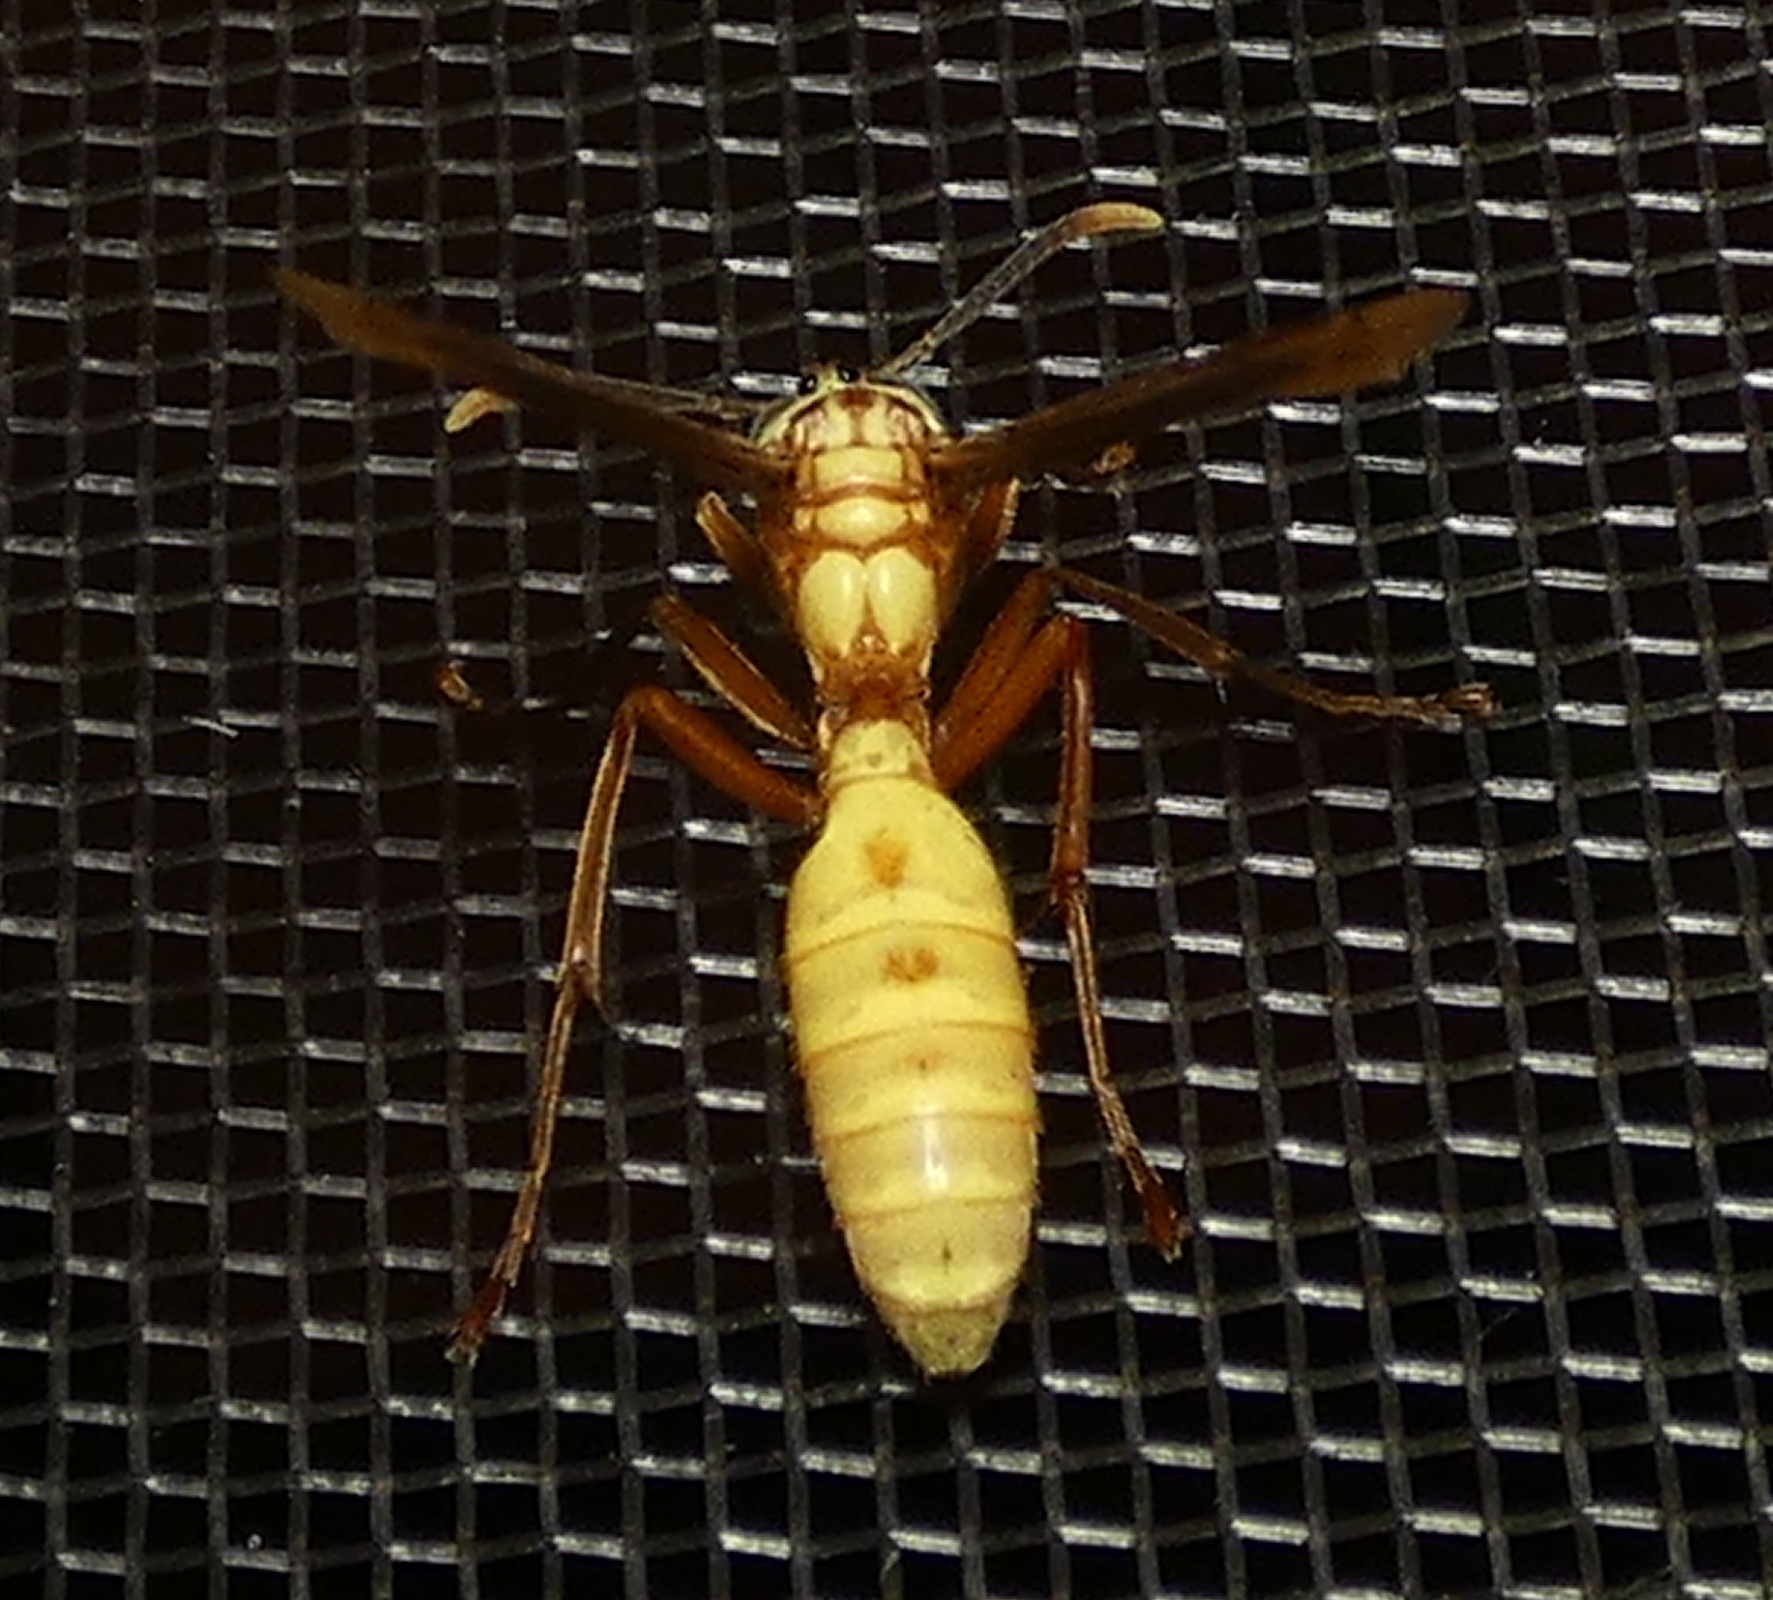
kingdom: Animalia
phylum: Arthropoda
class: Insecta
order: Hymenoptera
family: Vespidae
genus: Apoica
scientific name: Apoica flavissima
